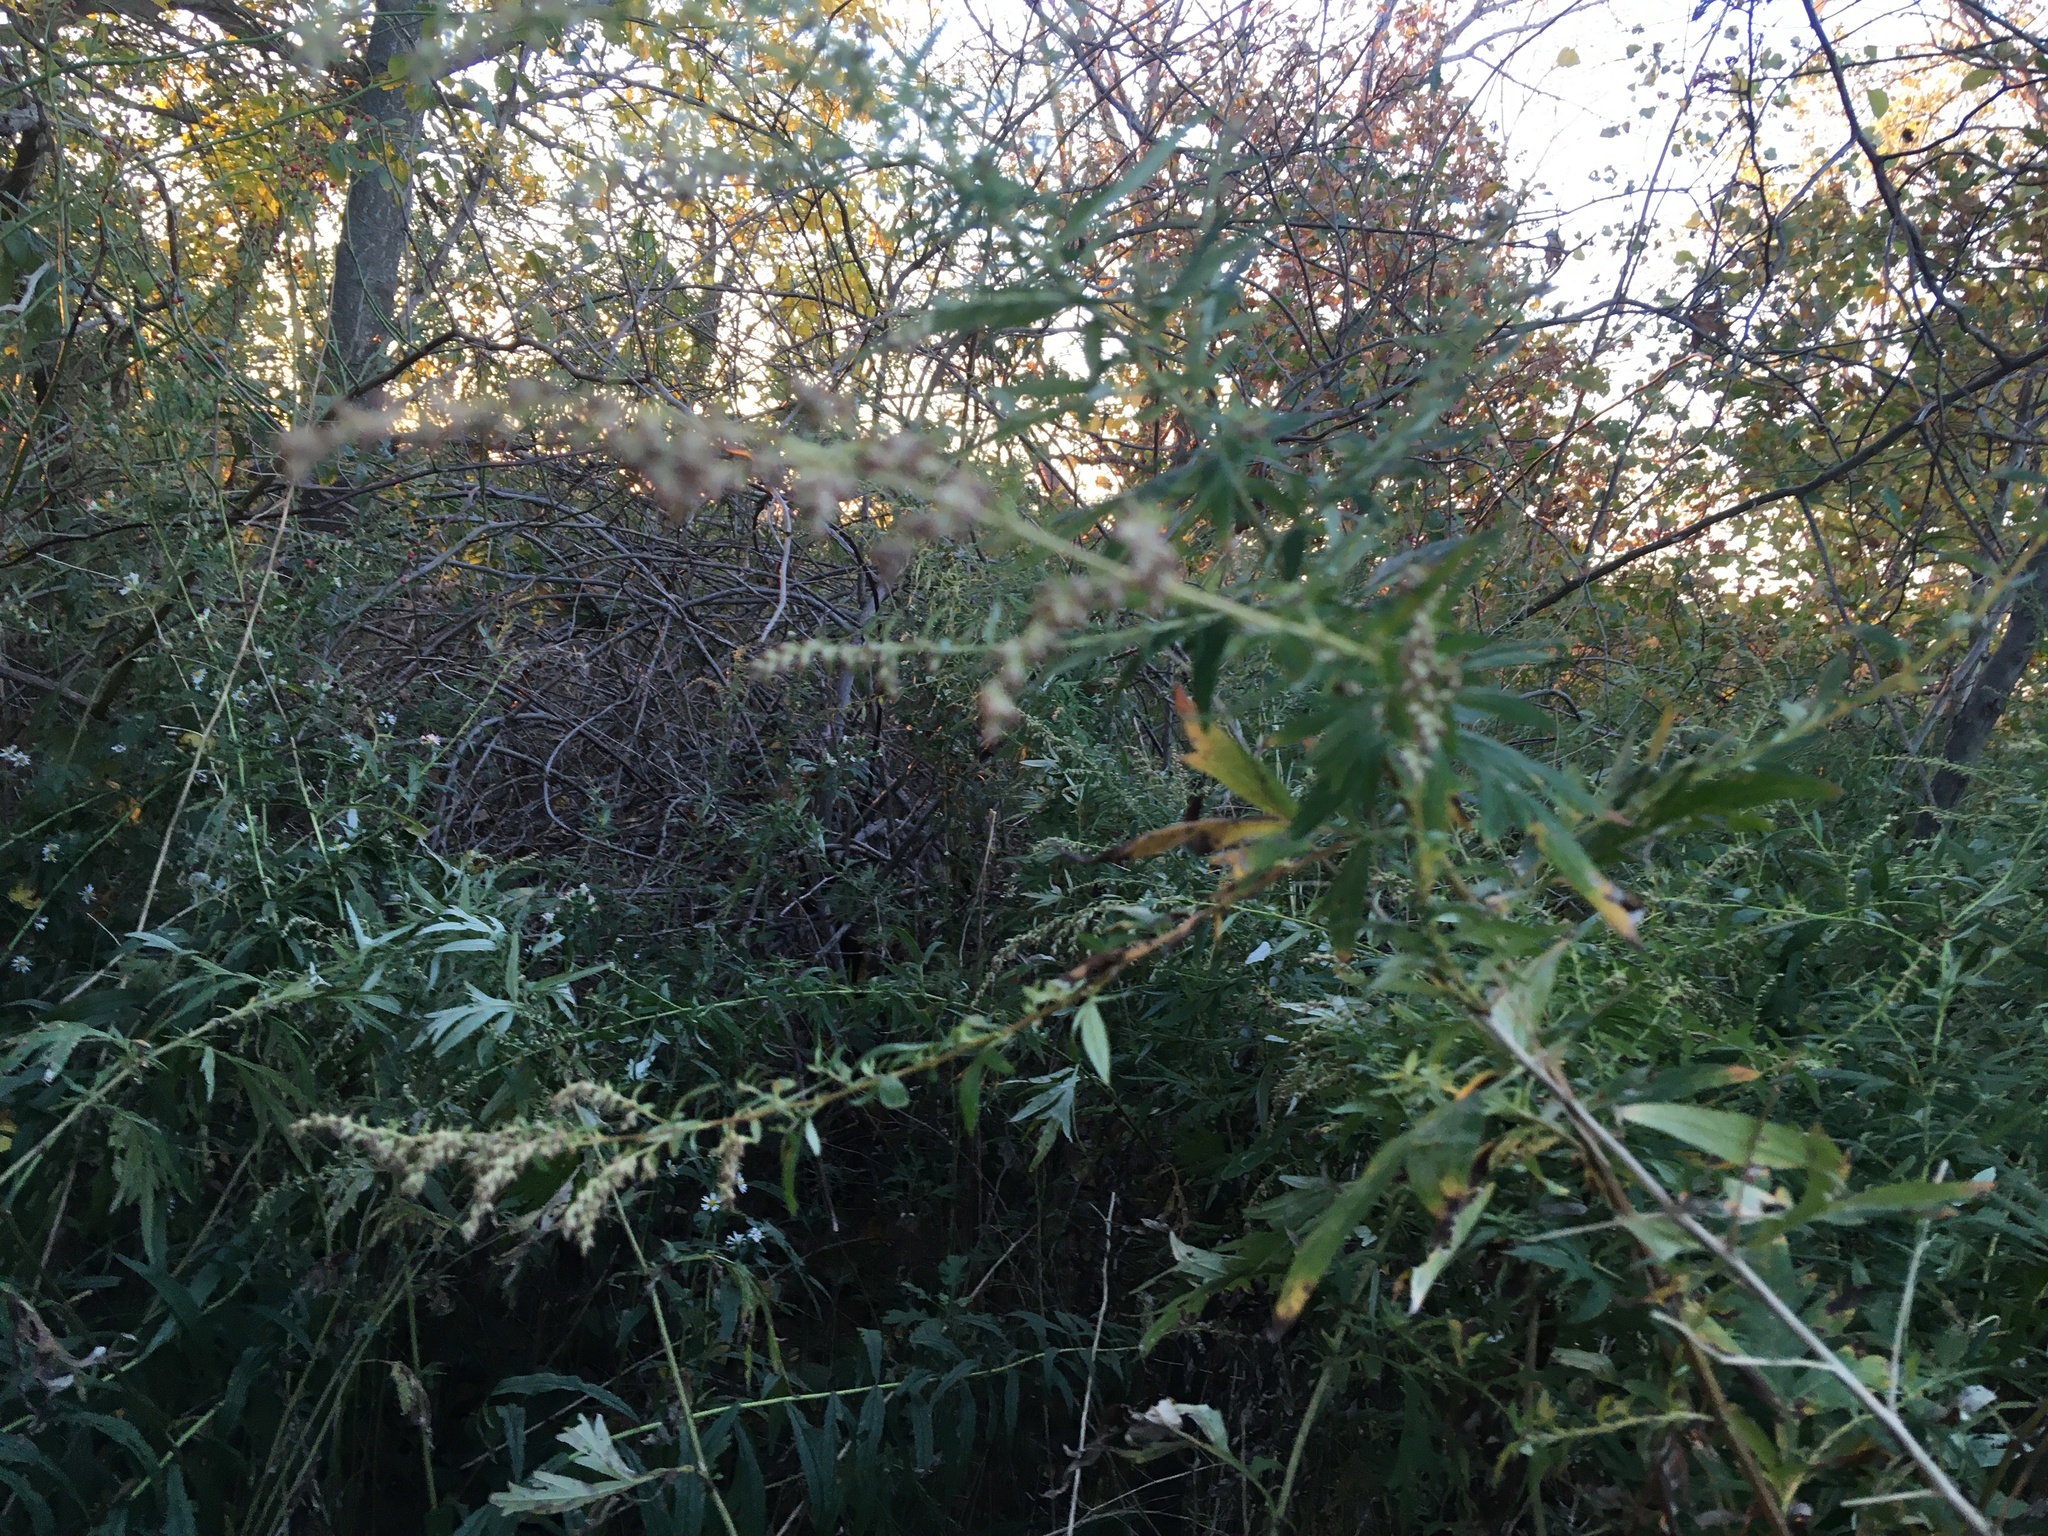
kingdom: Plantae
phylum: Tracheophyta
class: Magnoliopsida
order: Asterales
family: Asteraceae
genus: Artemisia
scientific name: Artemisia vulgaris
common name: Mugwort
